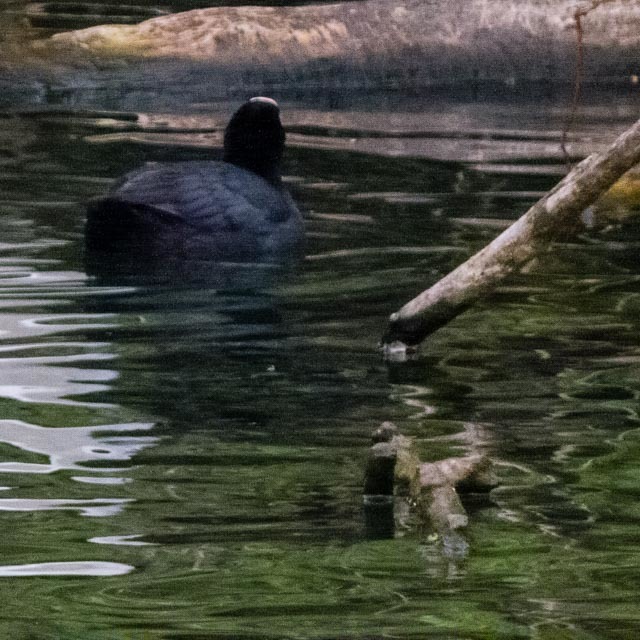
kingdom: Animalia
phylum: Chordata
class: Aves
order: Gruiformes
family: Rallidae
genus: Fulica
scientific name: Fulica atra
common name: Eurasian coot
